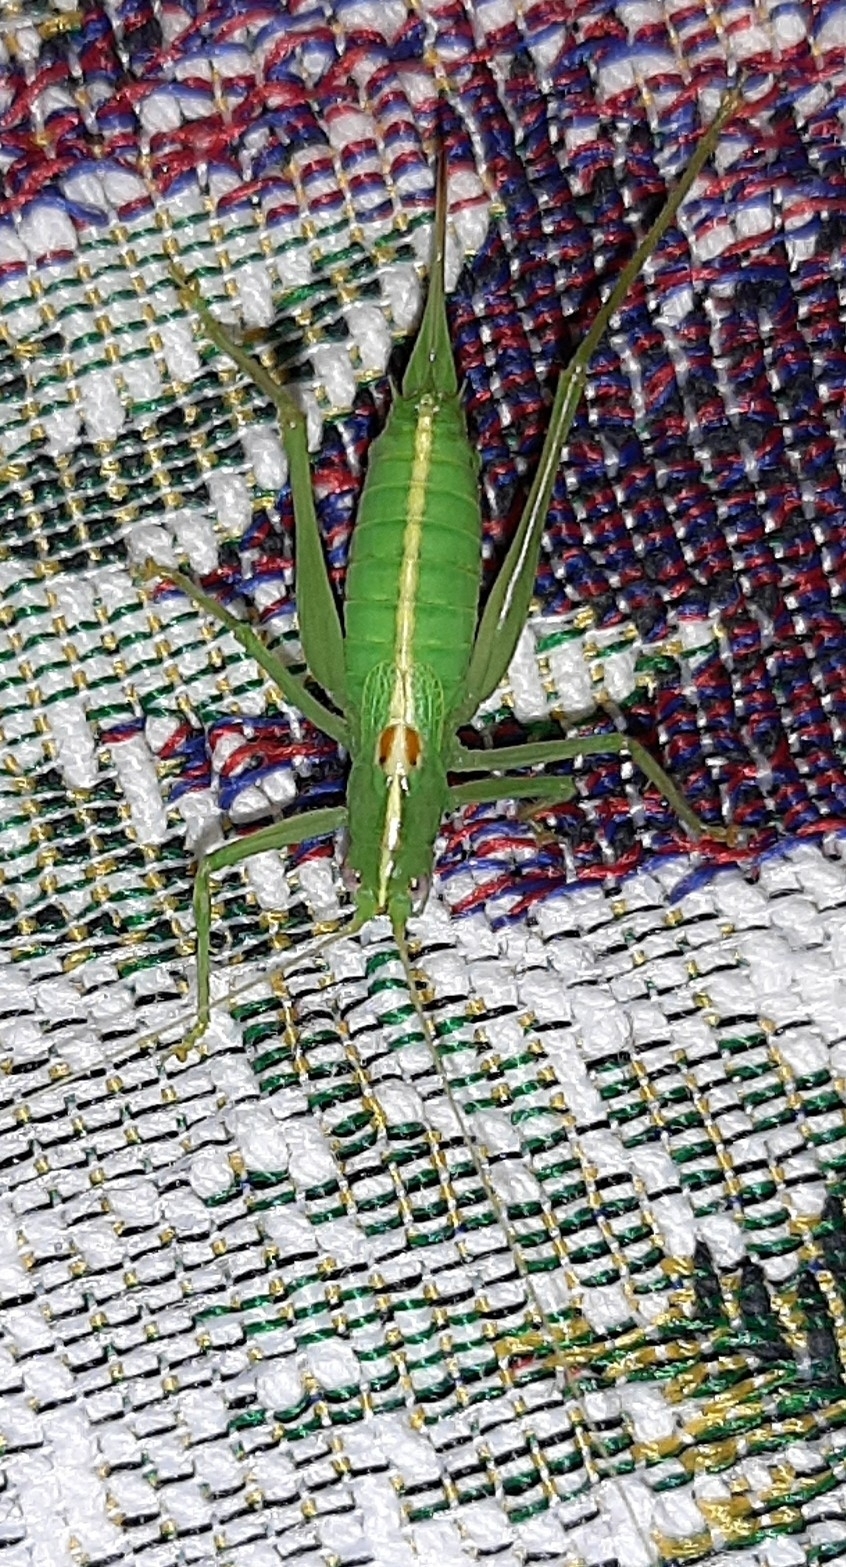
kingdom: Animalia
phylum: Arthropoda
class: Insecta
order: Orthoptera
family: Tettigoniidae
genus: Meconema
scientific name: Meconema meridionale
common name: Southern oak bush-cricket
